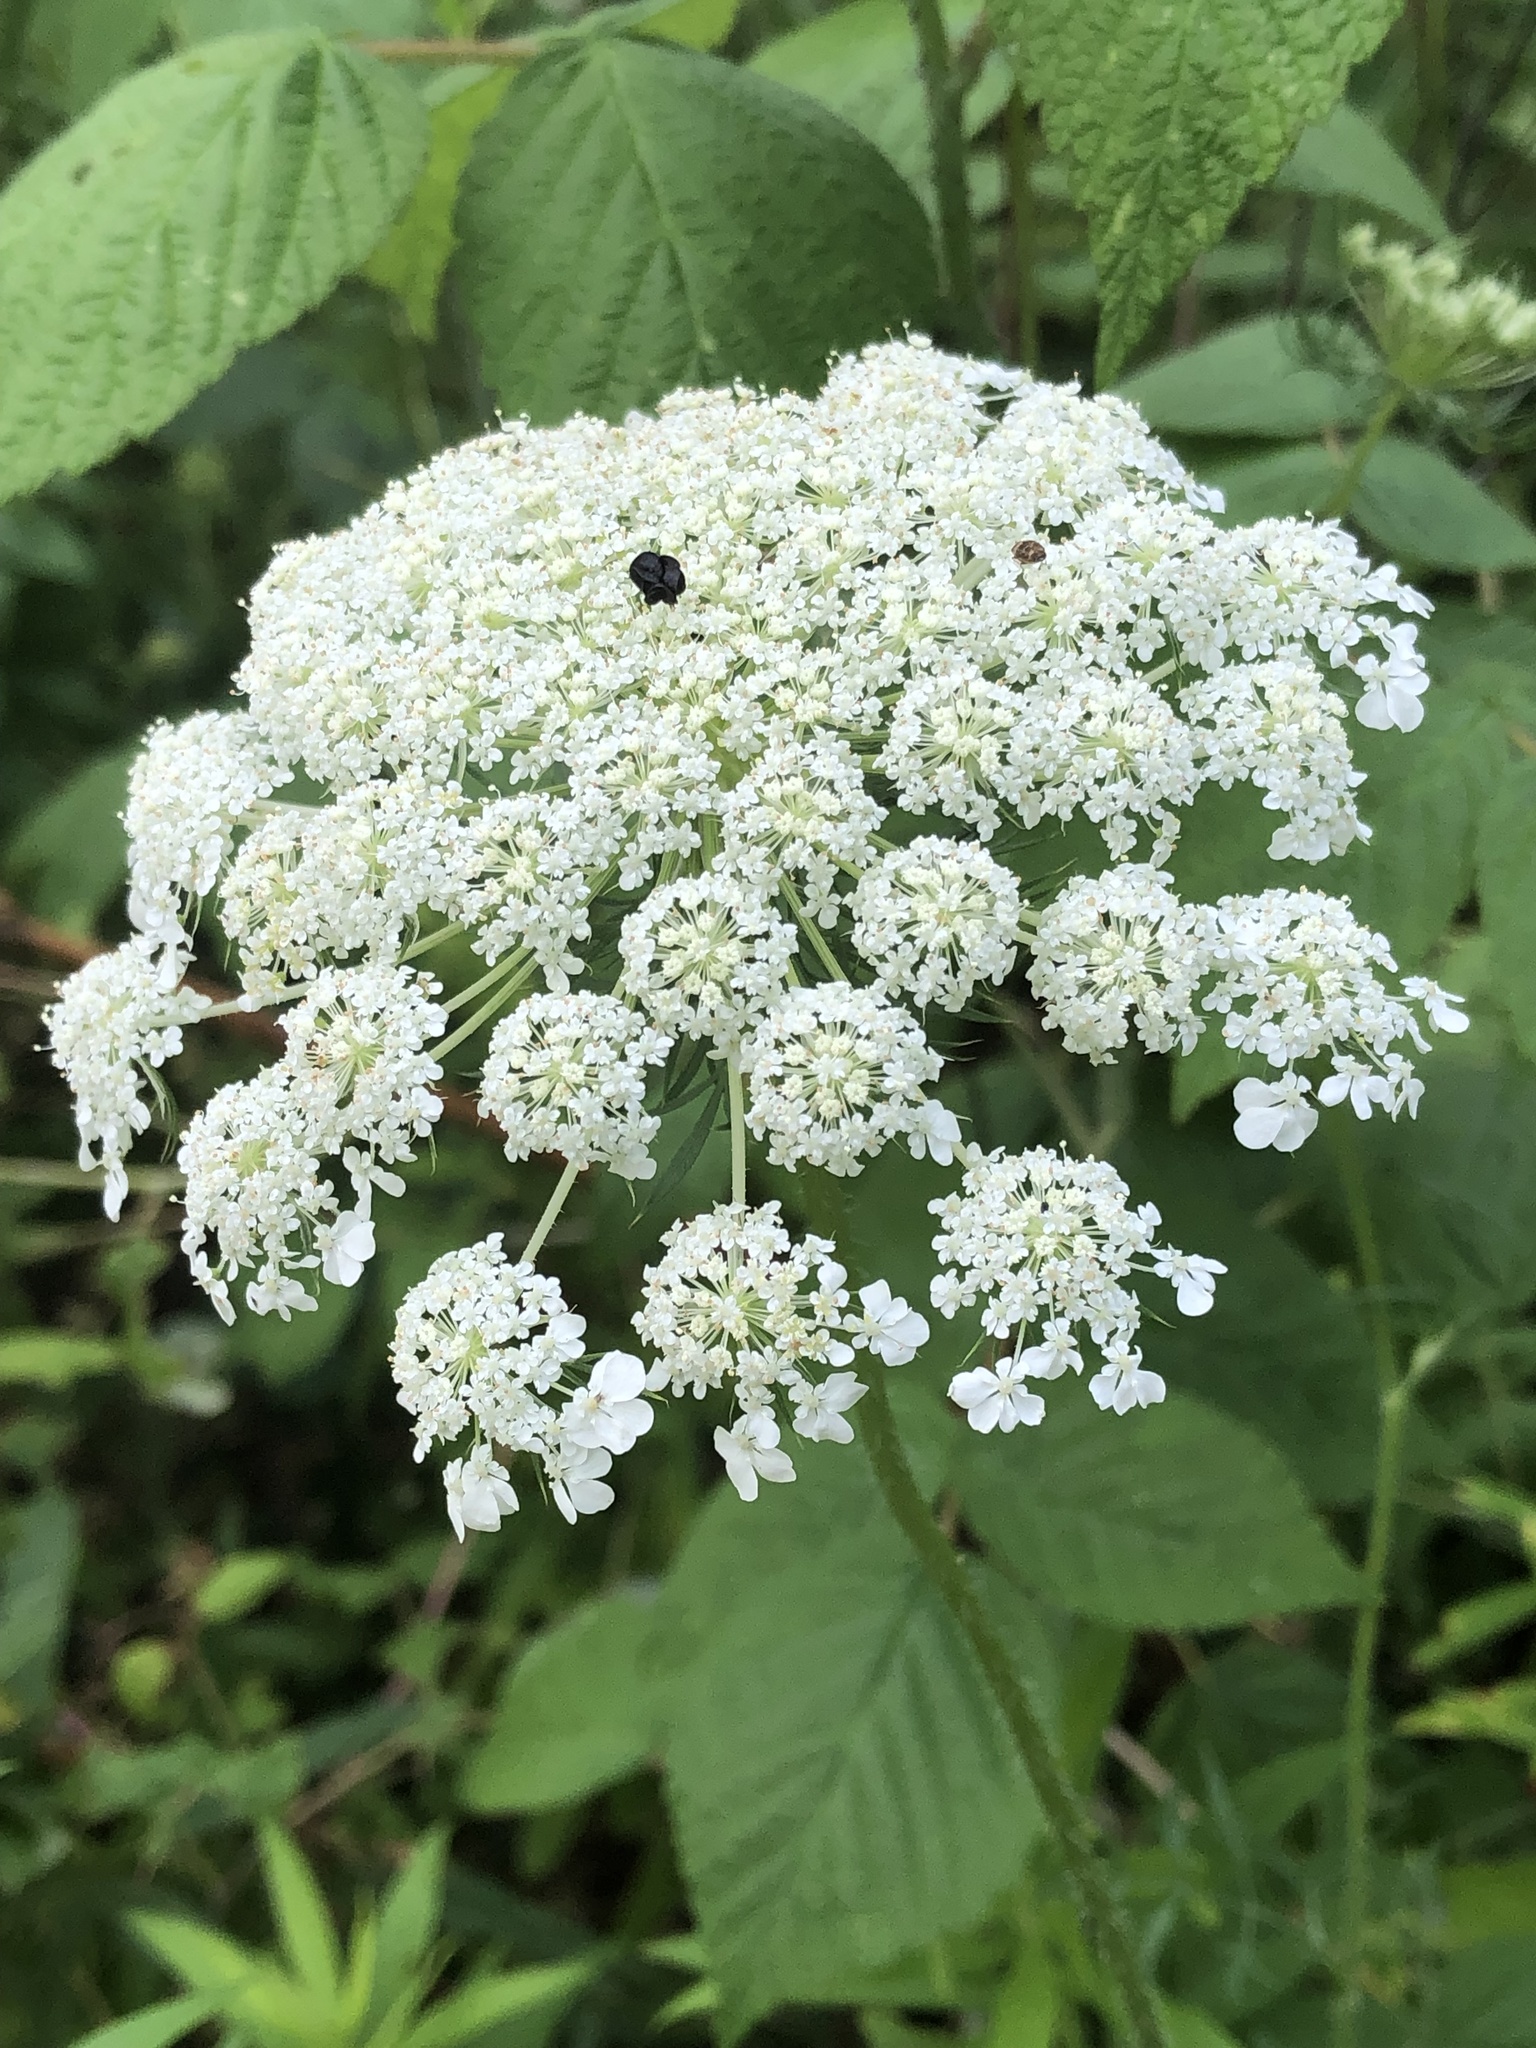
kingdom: Plantae
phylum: Tracheophyta
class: Magnoliopsida
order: Apiales
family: Apiaceae
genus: Daucus
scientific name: Daucus carota
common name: Wild carrot
